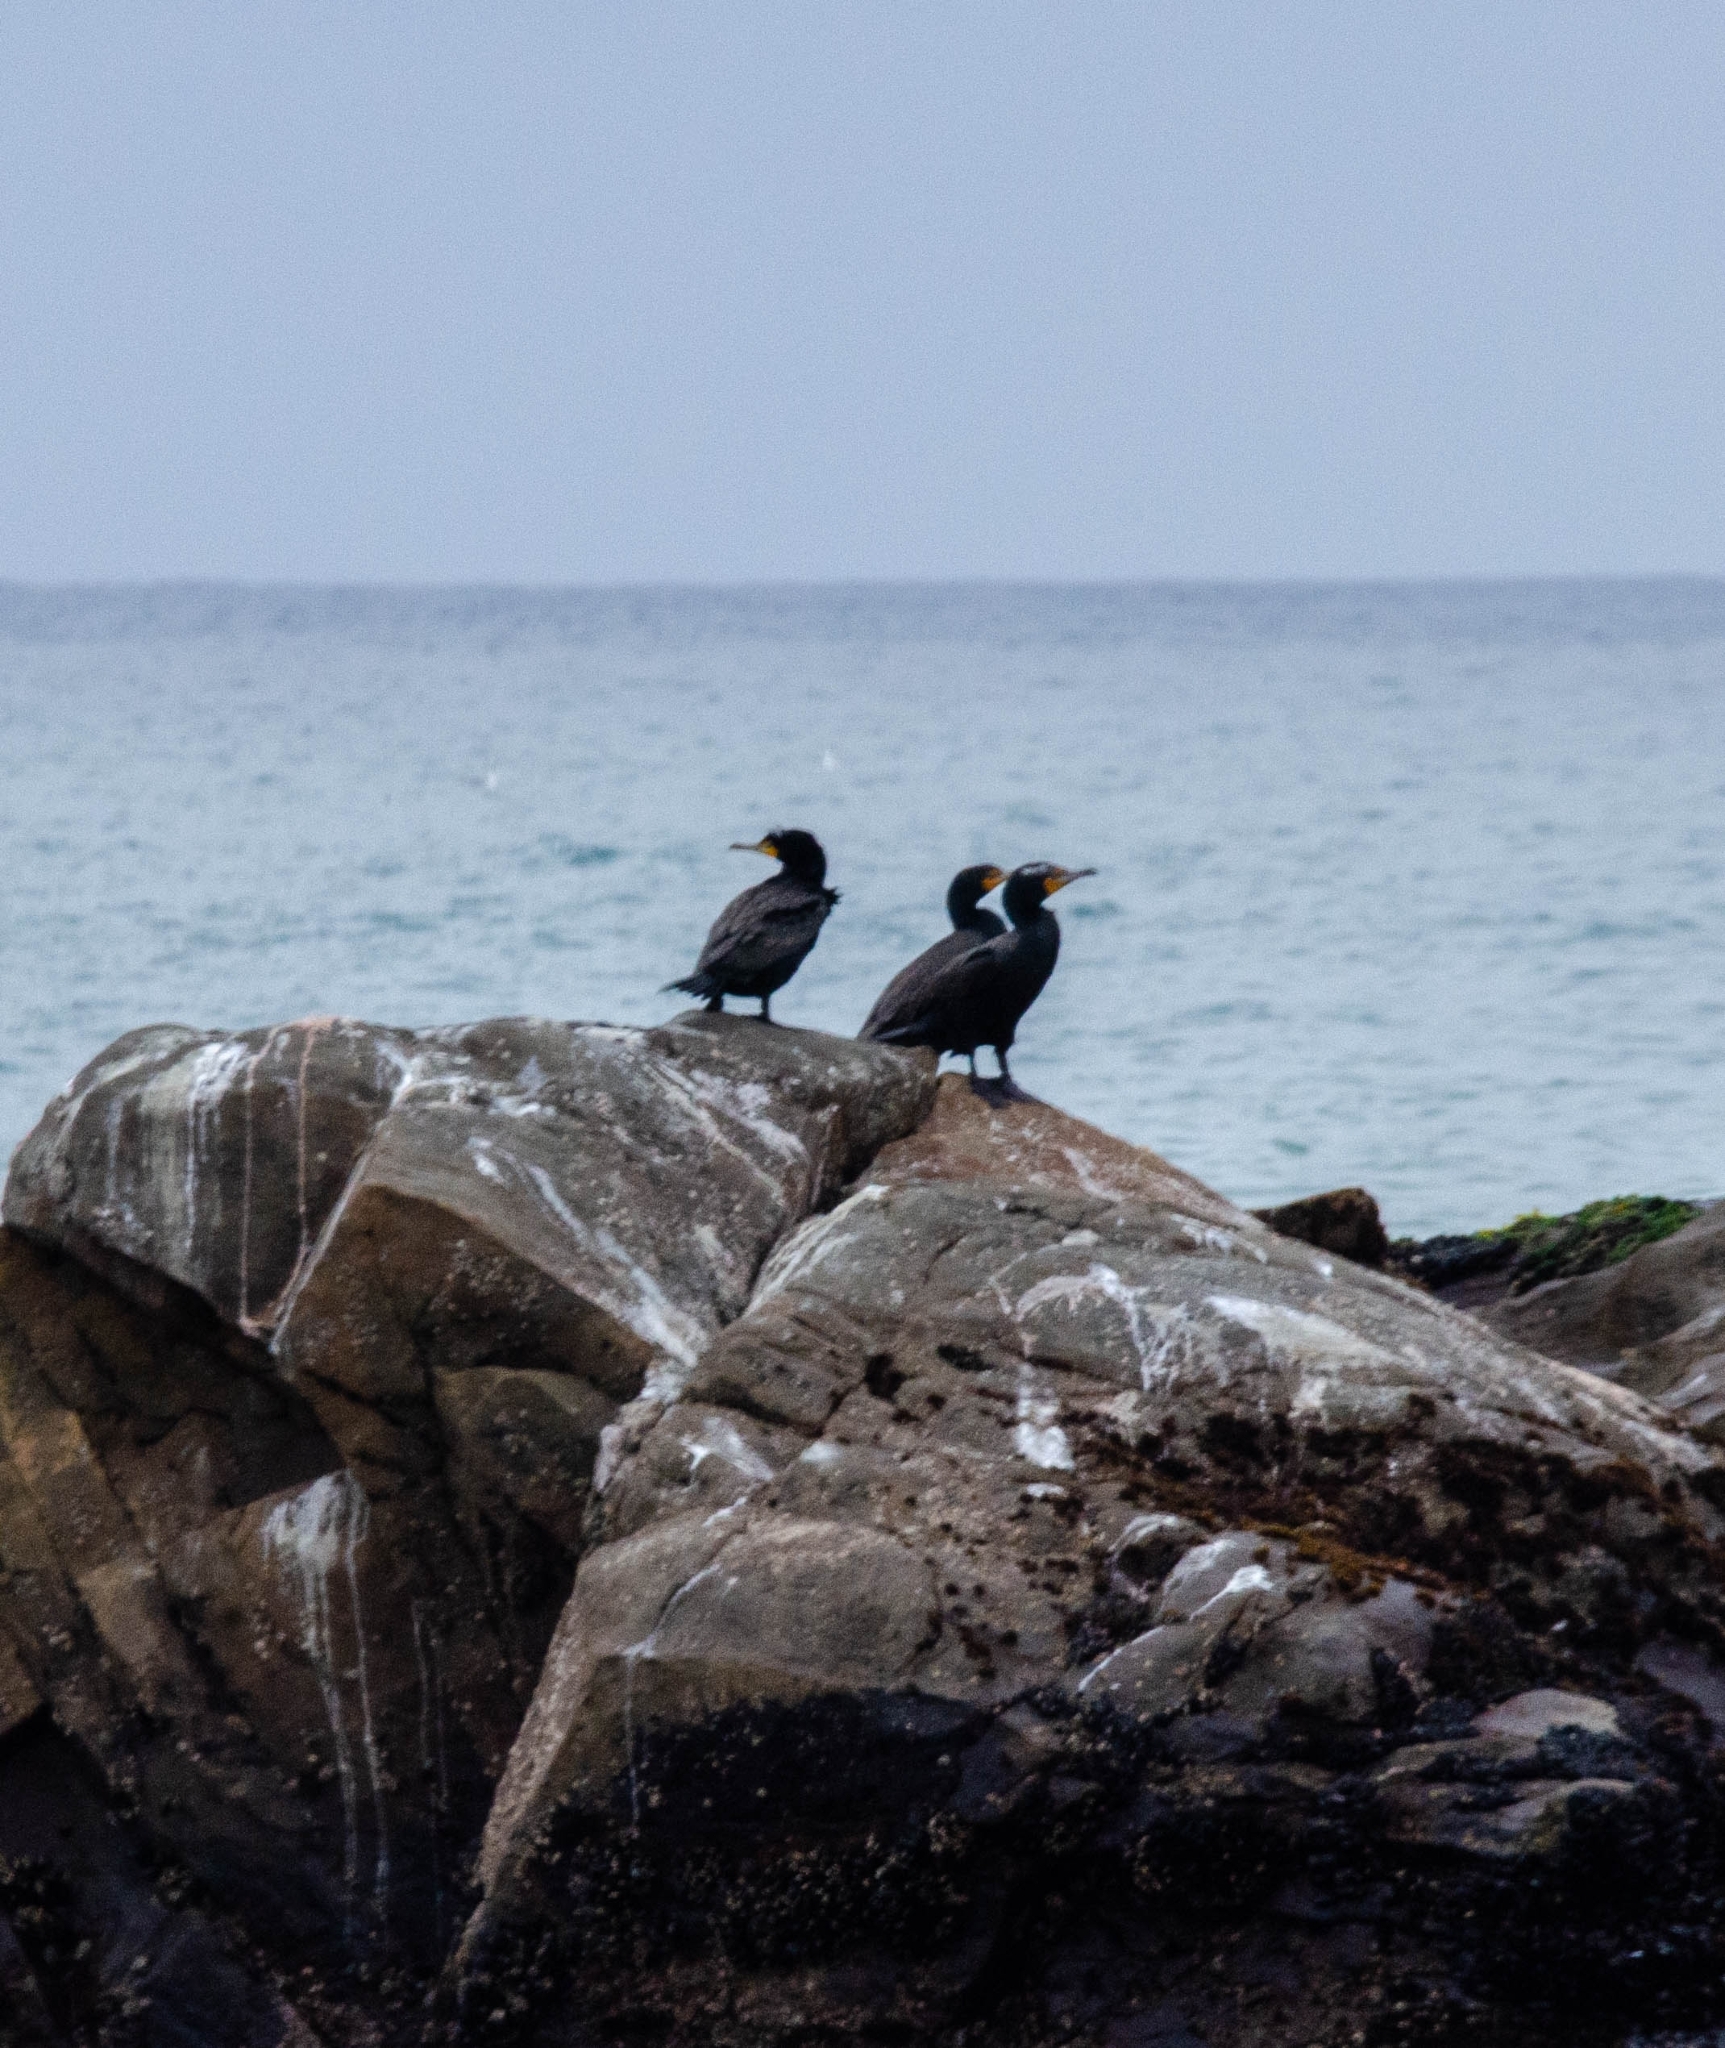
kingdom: Animalia
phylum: Chordata
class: Aves
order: Suliformes
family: Phalacrocoracidae
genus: Phalacrocorax
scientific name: Phalacrocorax auritus
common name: Double-crested cormorant
